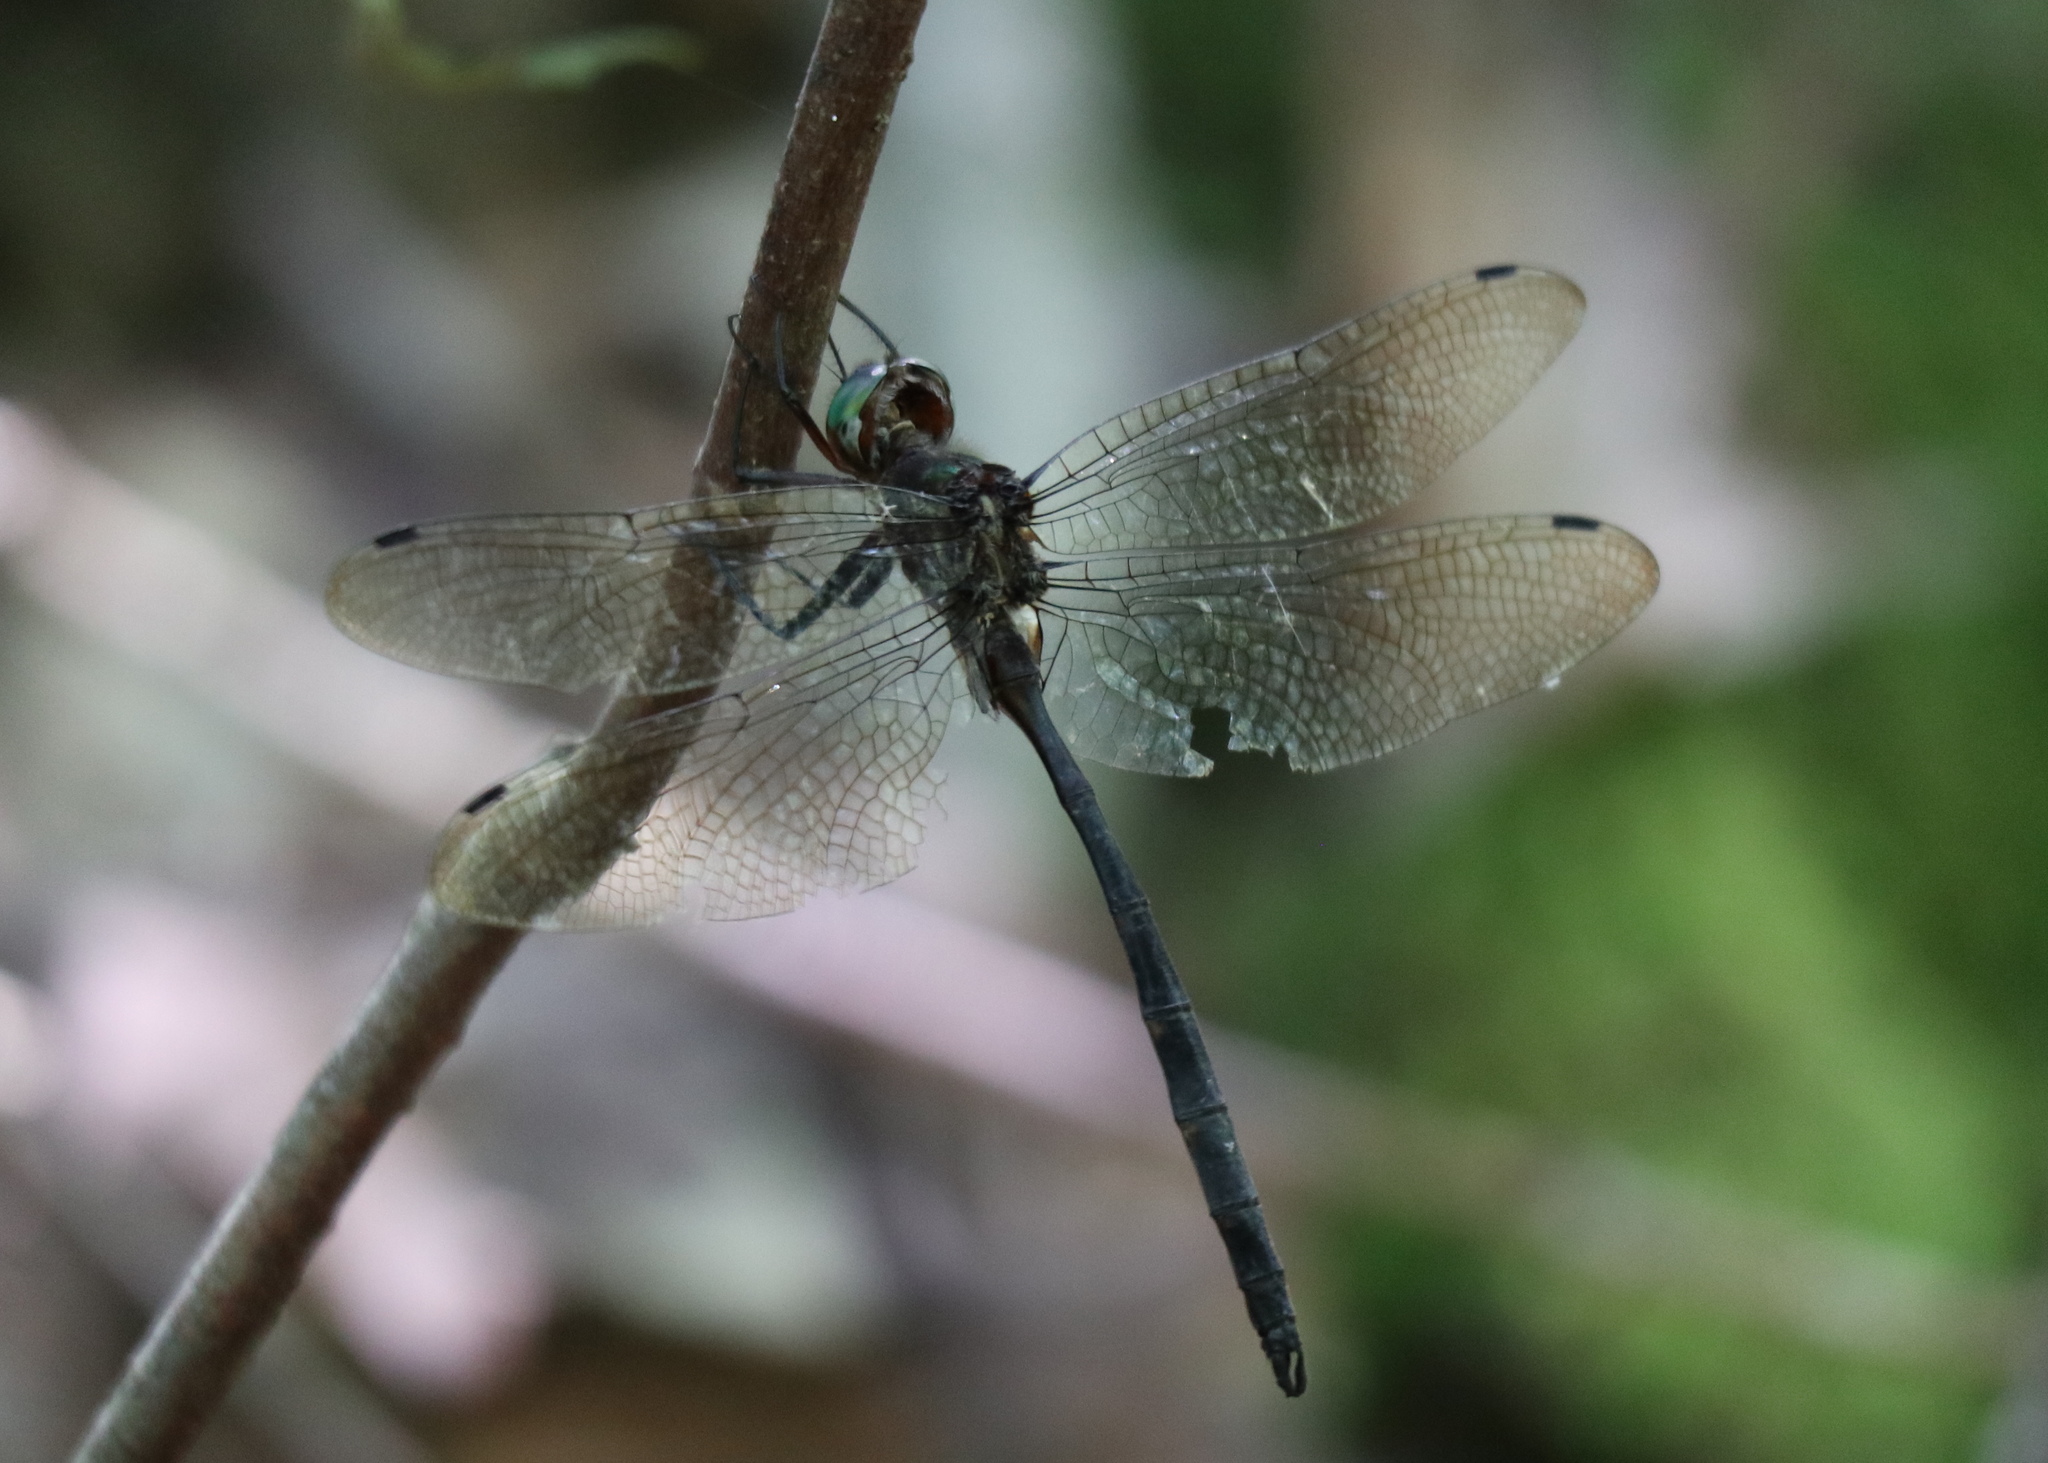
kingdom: Animalia
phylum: Arthropoda
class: Insecta
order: Odonata
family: Corduliidae
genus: Somatochlora
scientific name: Somatochlora linearis
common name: Mocha emerald
